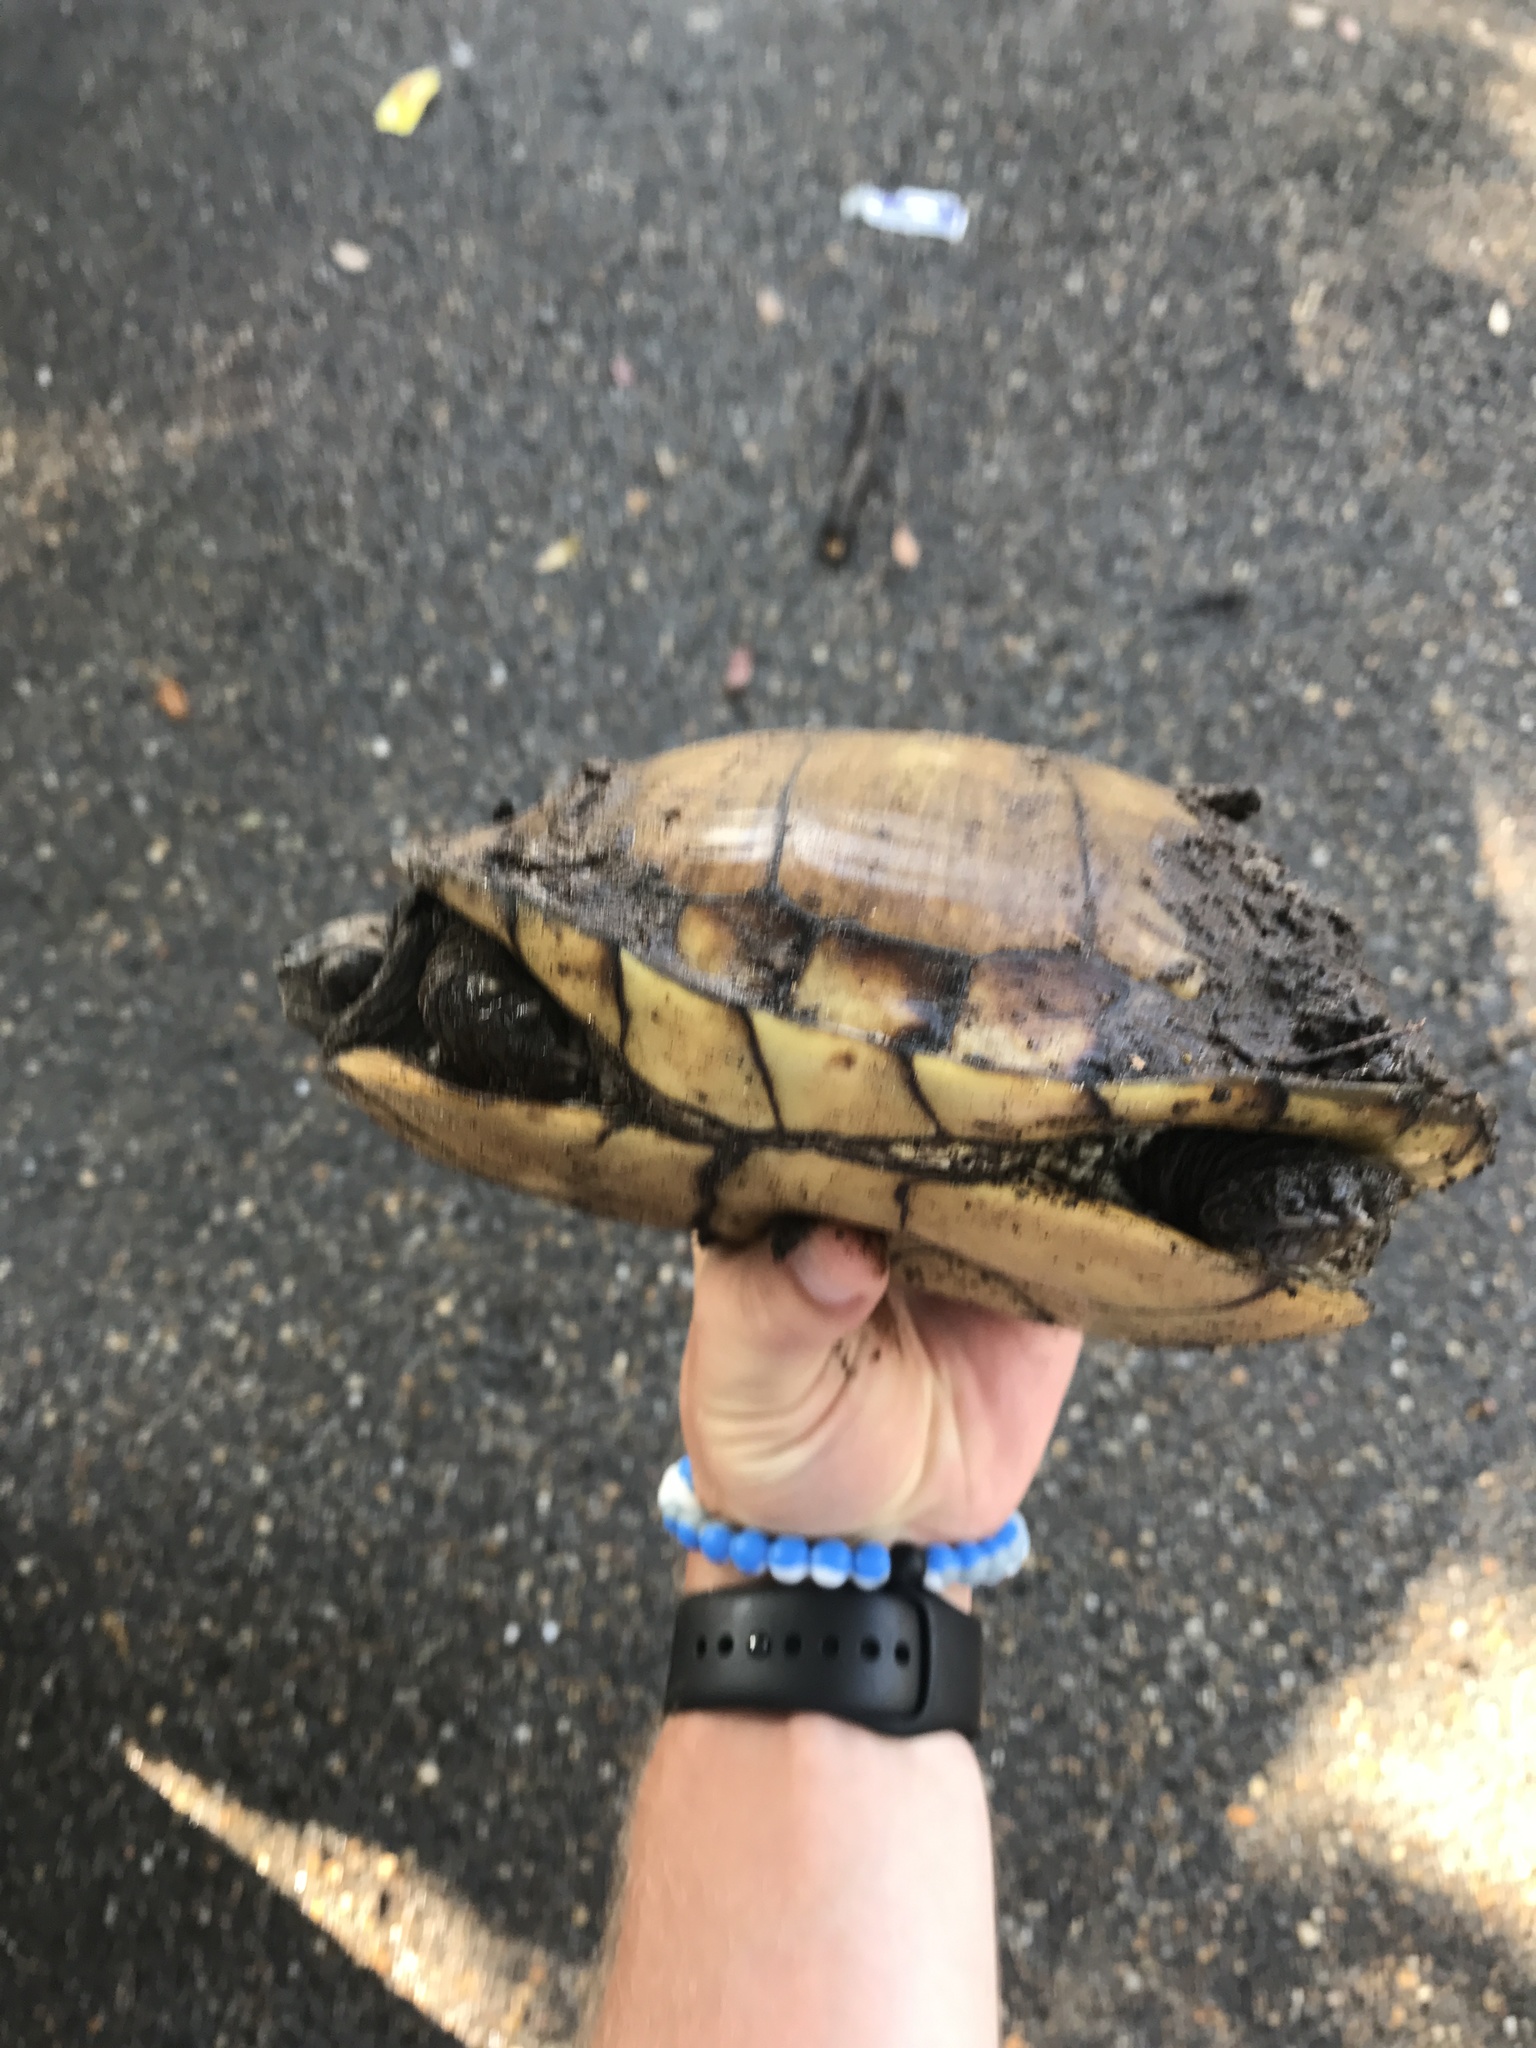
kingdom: Animalia
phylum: Chordata
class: Testudines
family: Emydidae
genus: Terrapene
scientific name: Terrapene carolina
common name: Common box turtle
